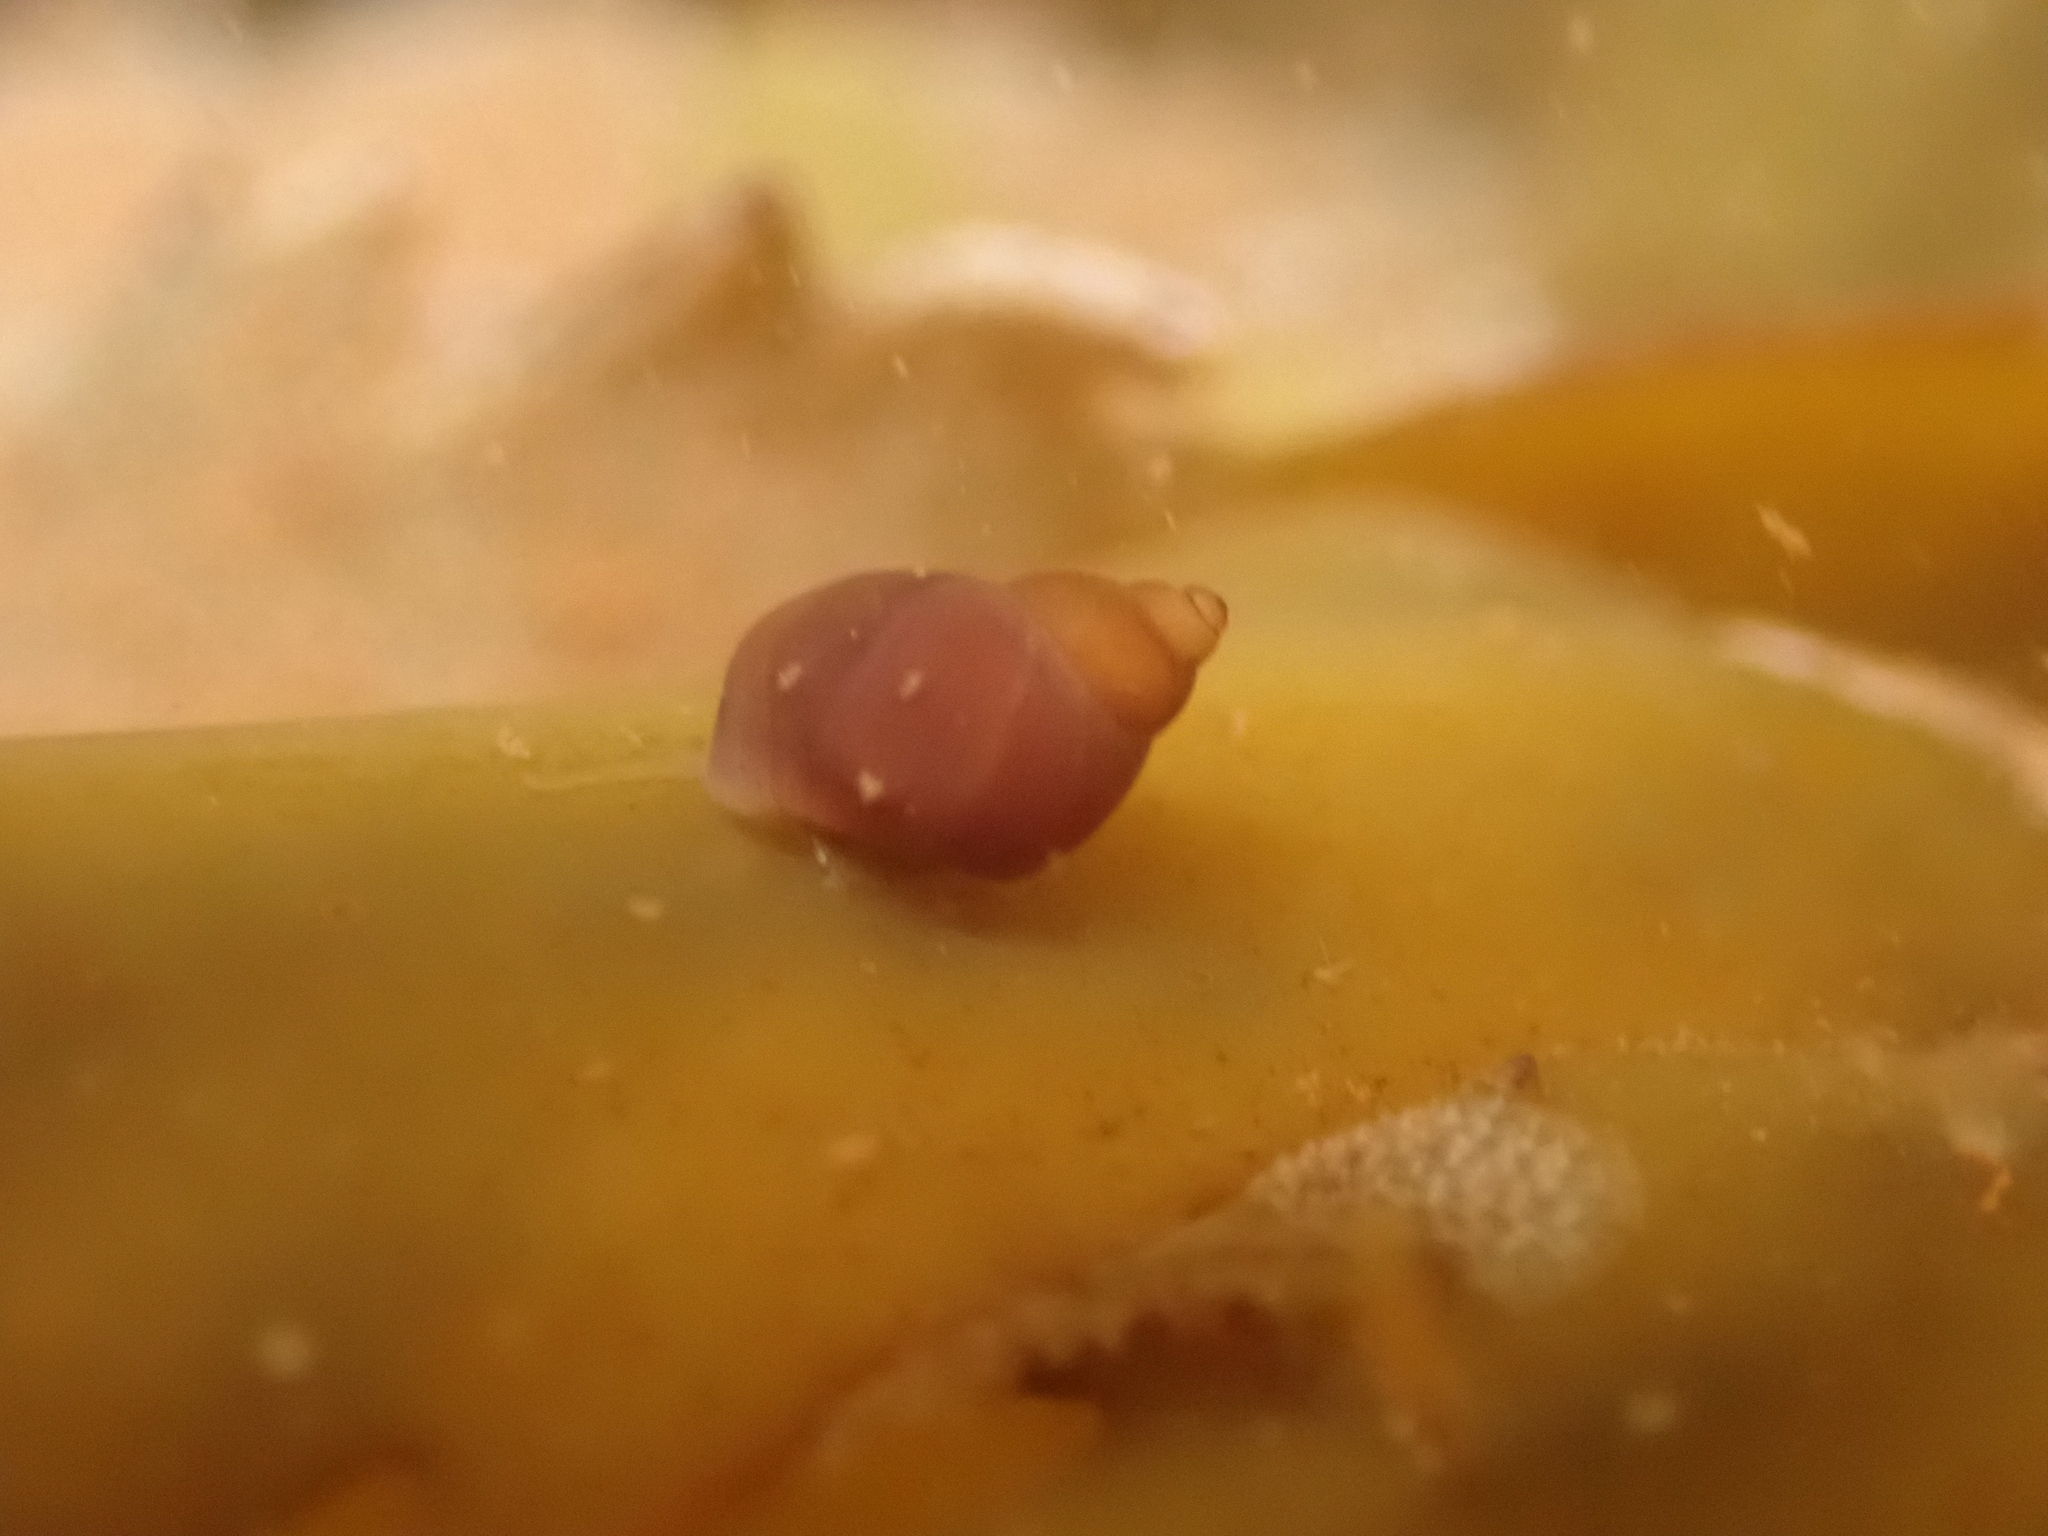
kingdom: Animalia
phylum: Mollusca
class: Gastropoda
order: Littorinimorpha
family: Littorinidae
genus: Lacuna
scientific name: Lacuna vincta
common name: Banded chink shell
